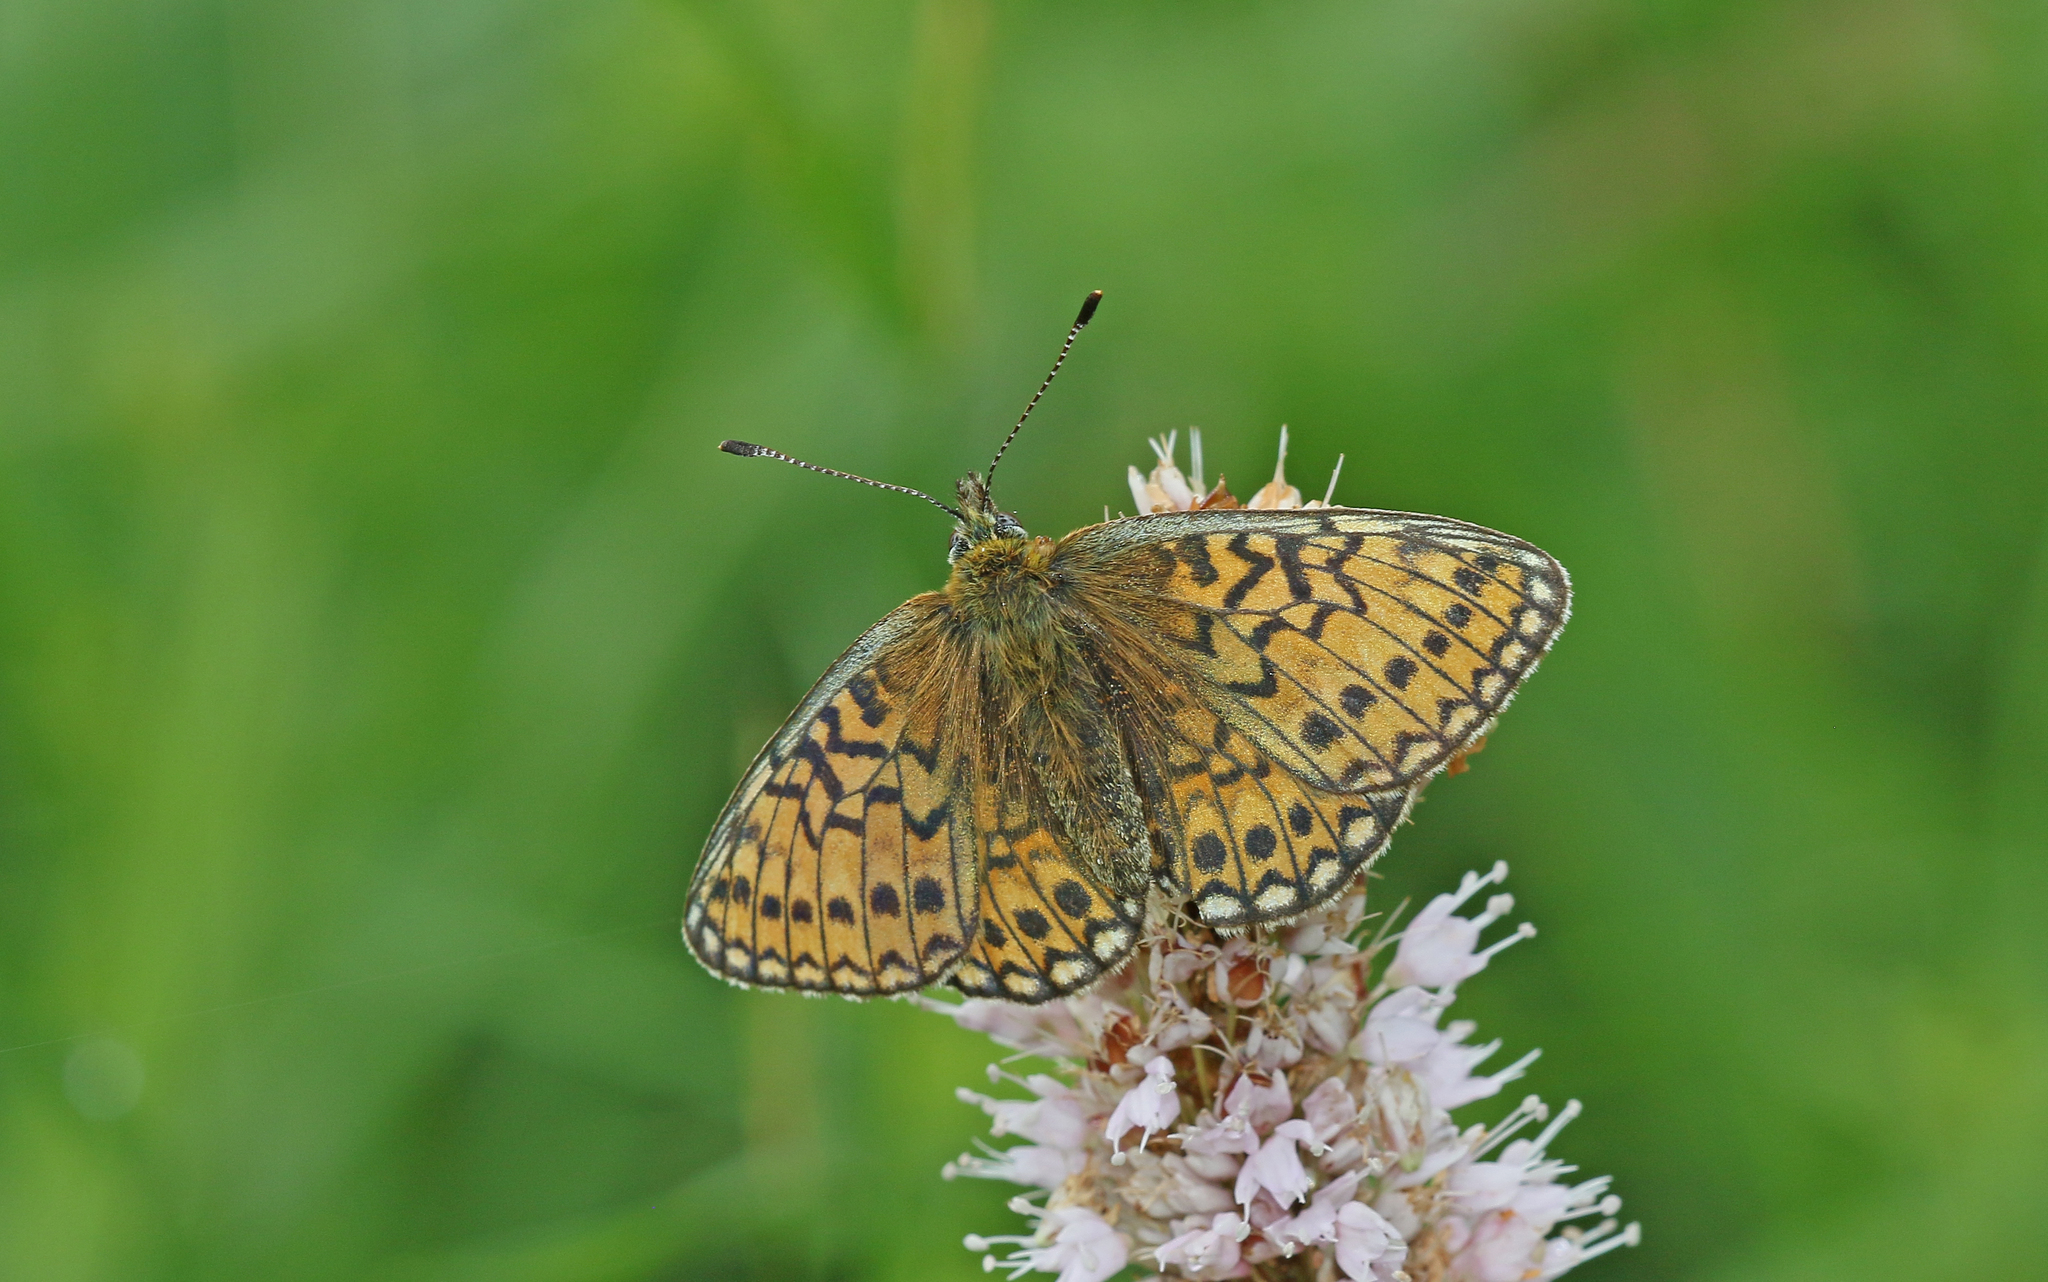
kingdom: Animalia
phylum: Arthropoda
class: Insecta
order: Lepidoptera
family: Nymphalidae
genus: Boloria
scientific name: Boloria eunomia
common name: Bog fritillary
